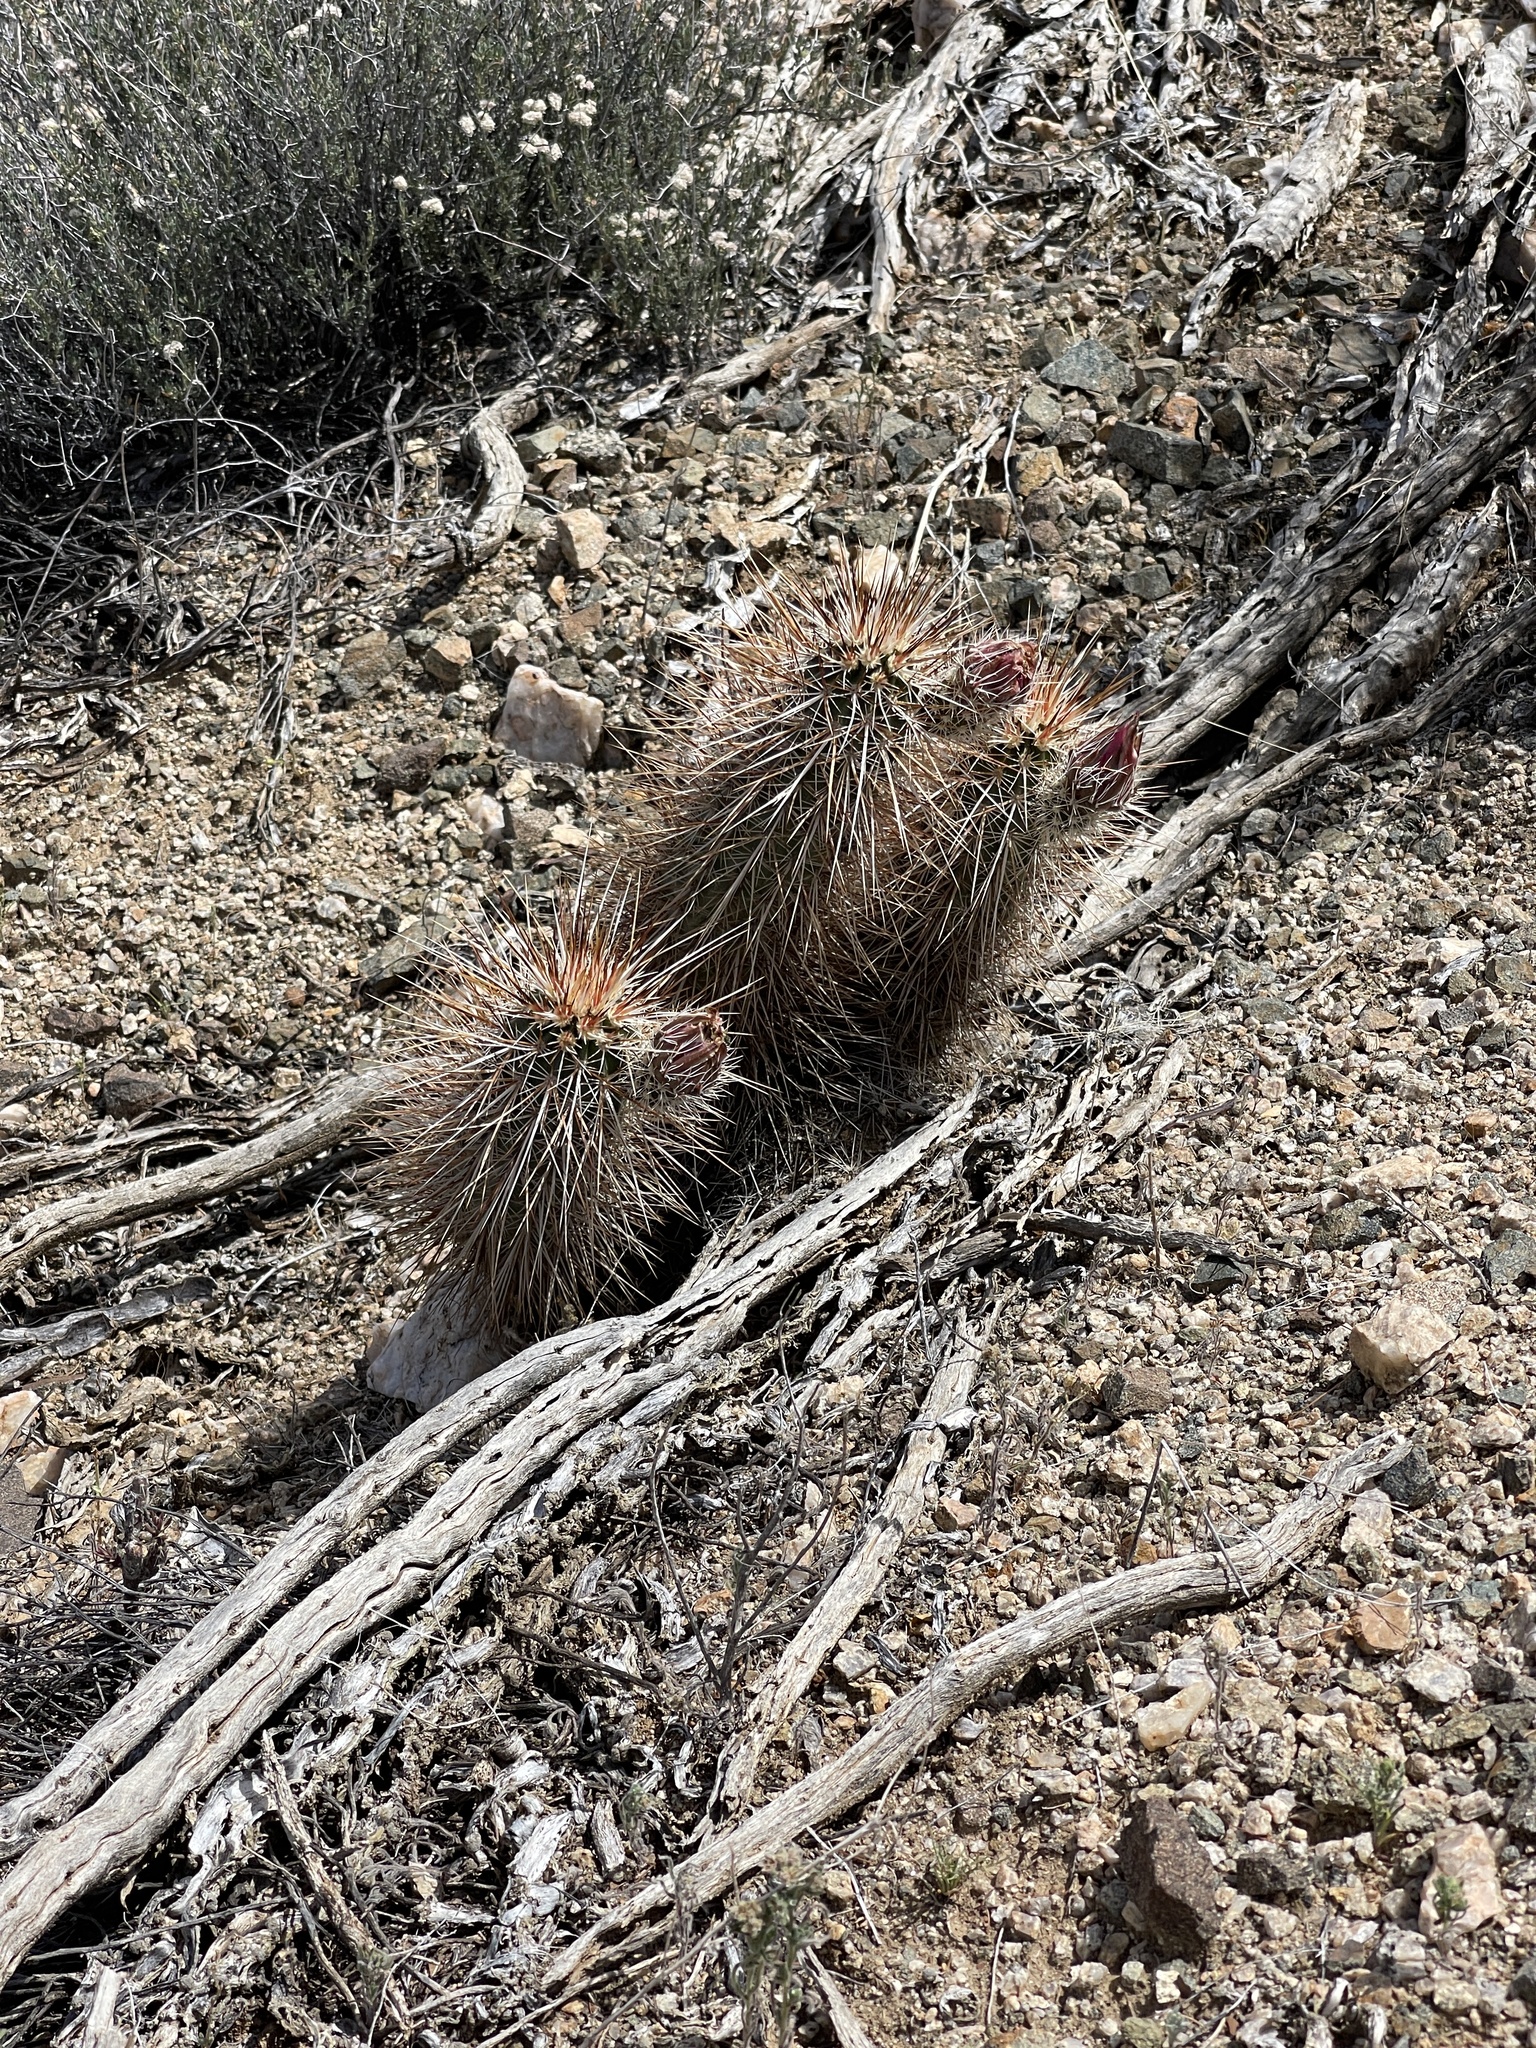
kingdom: Plantae
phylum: Tracheophyta
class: Magnoliopsida
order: Caryophyllales
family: Cactaceae
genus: Echinocereus
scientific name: Echinocereus engelmannii
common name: Engelmann's hedgehog cactus
